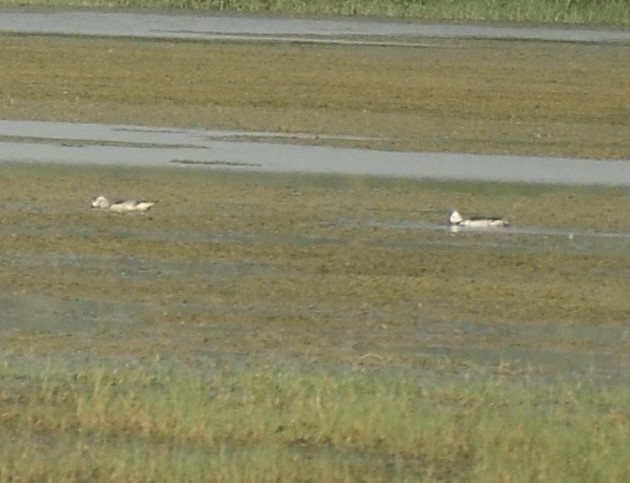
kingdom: Animalia
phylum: Chordata
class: Aves
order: Anseriformes
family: Anatidae
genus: Nettapus
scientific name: Nettapus coromandelianus
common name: Cotton pygmy-goose
